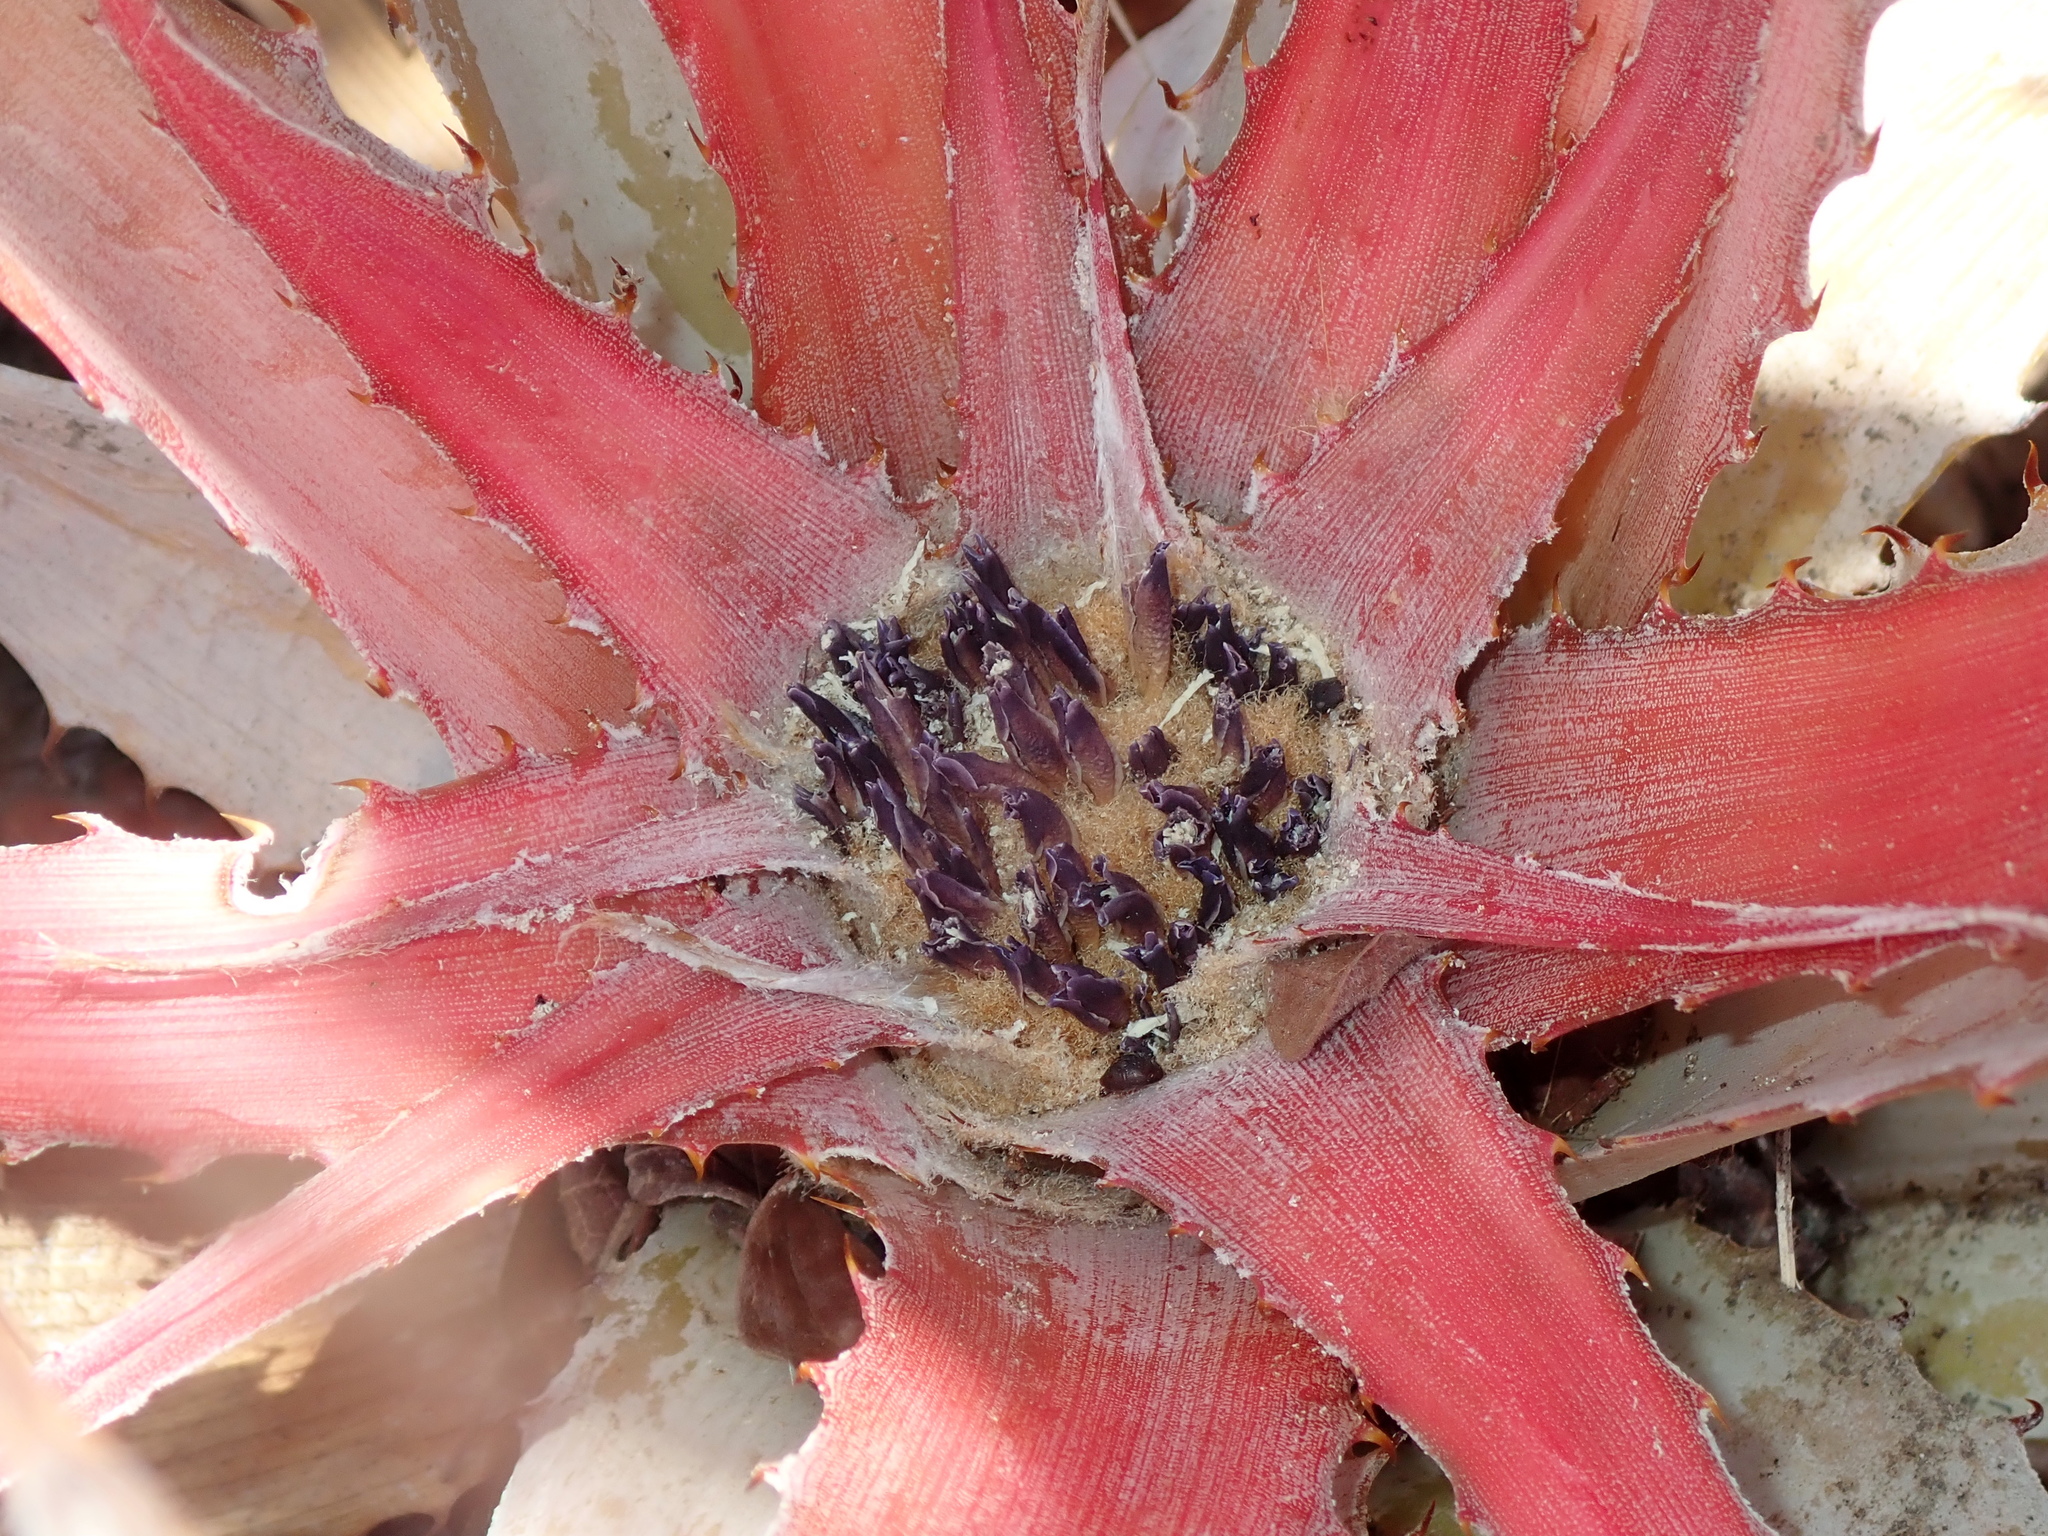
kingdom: Plantae
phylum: Tracheophyta
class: Liliopsida
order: Poales
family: Bromeliaceae
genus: Bromelia
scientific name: Bromelia villosa
